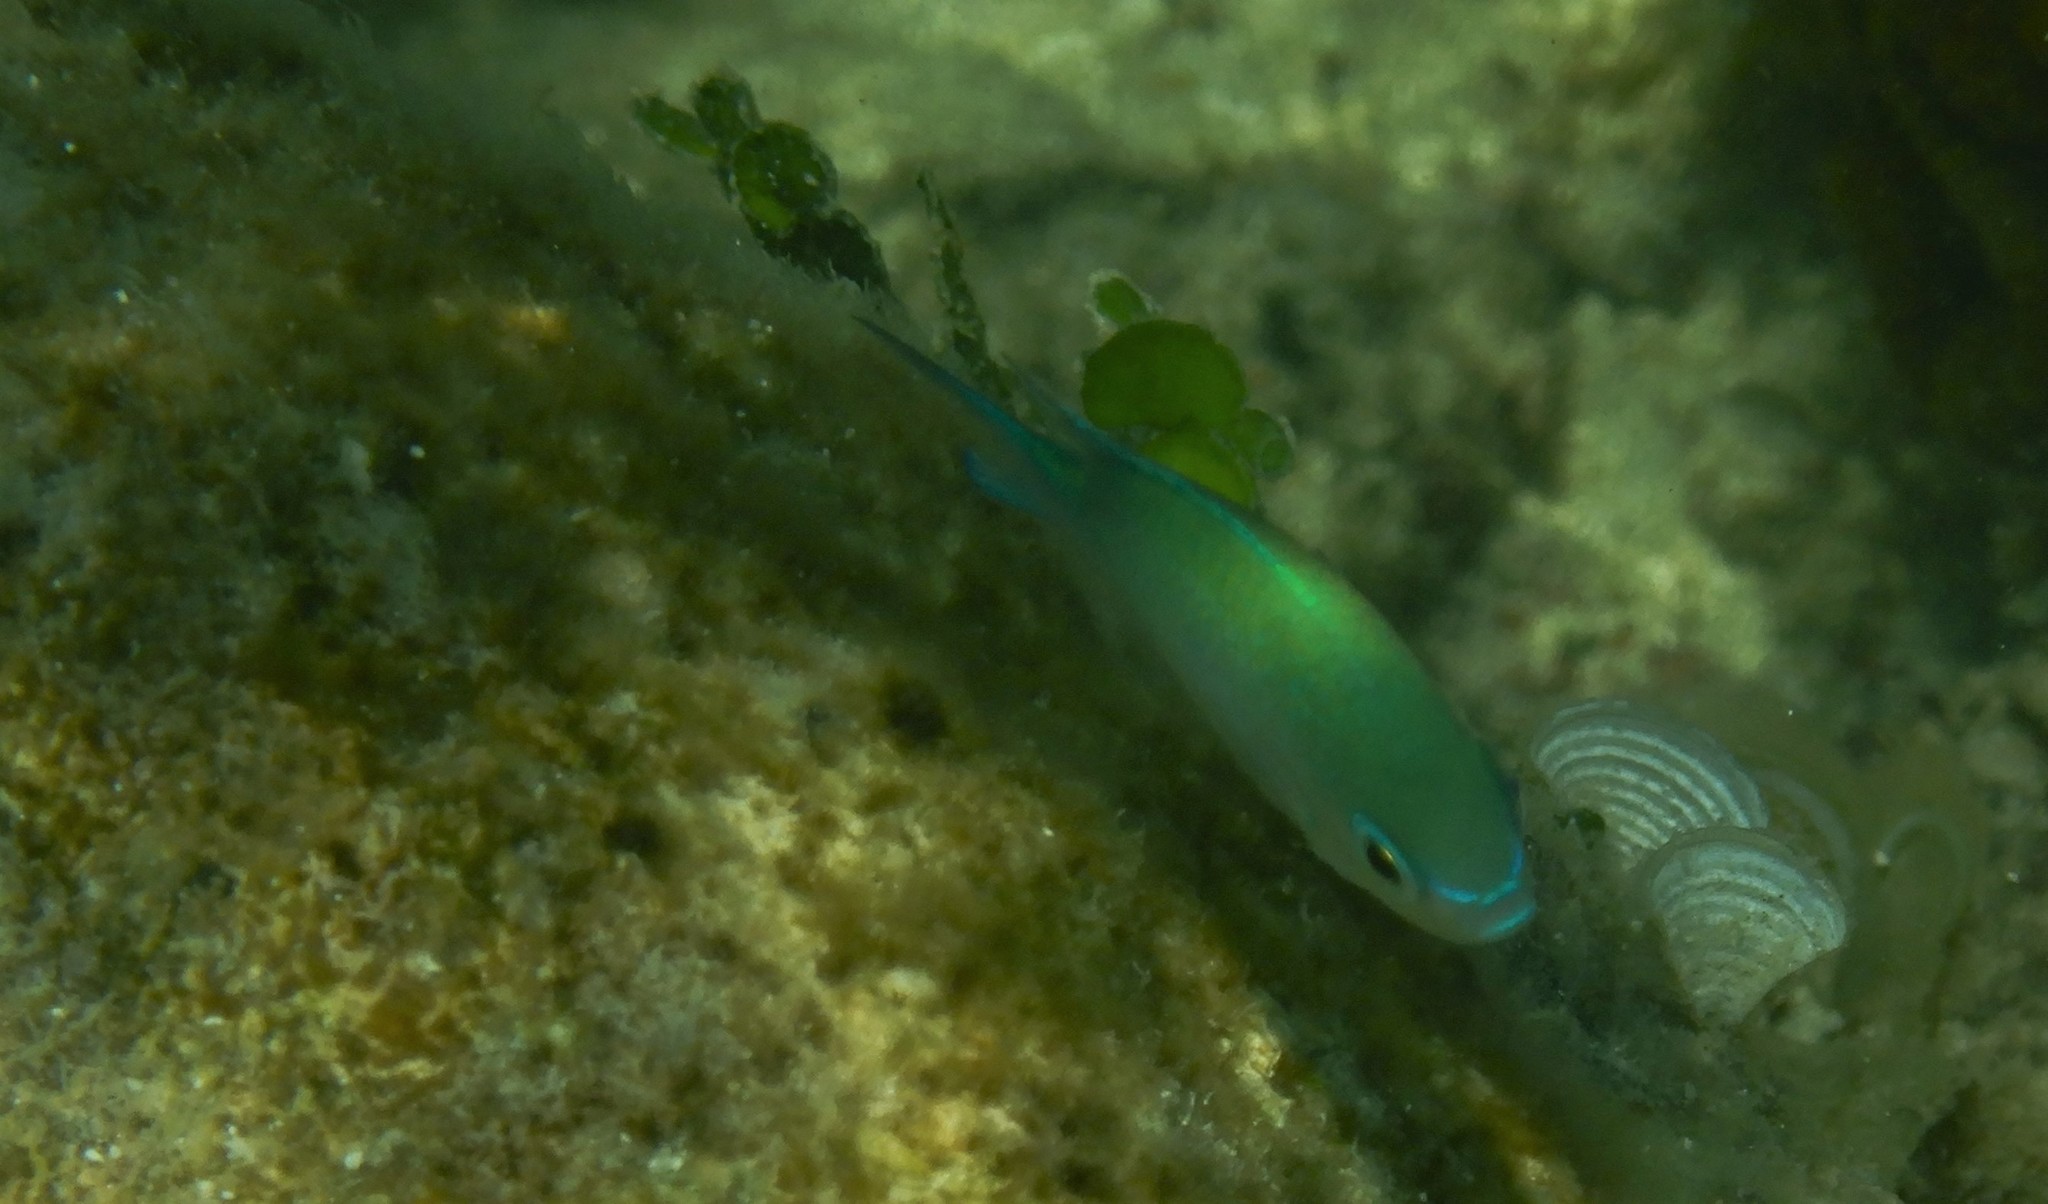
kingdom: Animalia
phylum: Chordata
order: Perciformes
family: Pomacentridae
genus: Chromis
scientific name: Chromis viridis
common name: Blue-green chromis
